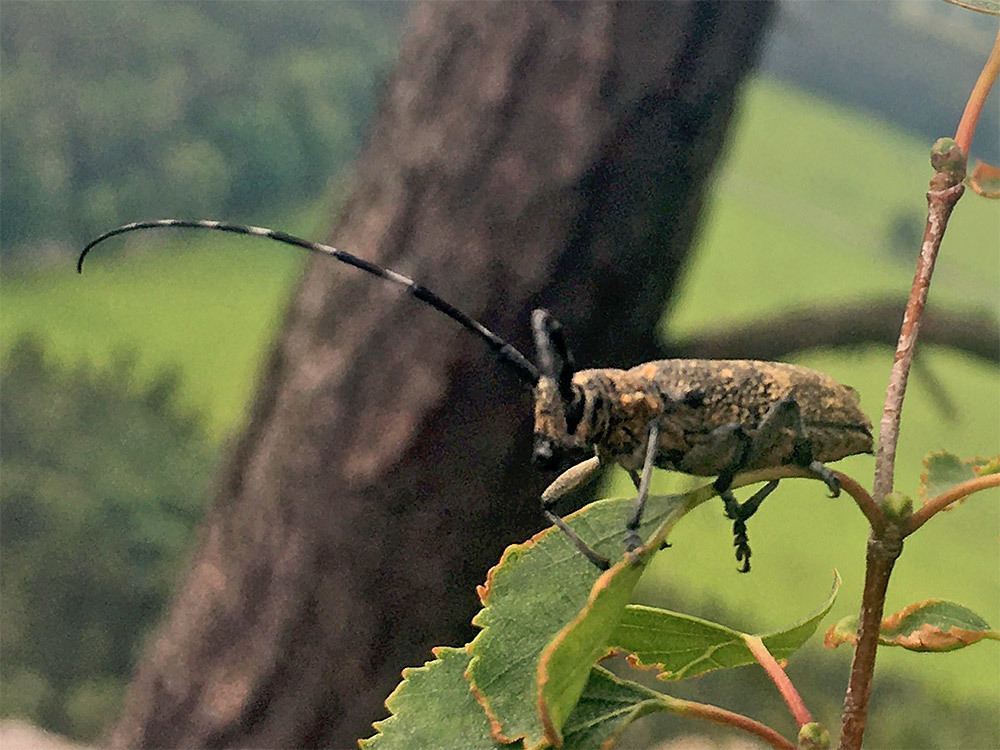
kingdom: Animalia
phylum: Arthropoda
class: Insecta
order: Coleoptera
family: Cerambycidae
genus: Monochamus
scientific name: Monochamus galloprovincialis
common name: Pine sawyer
